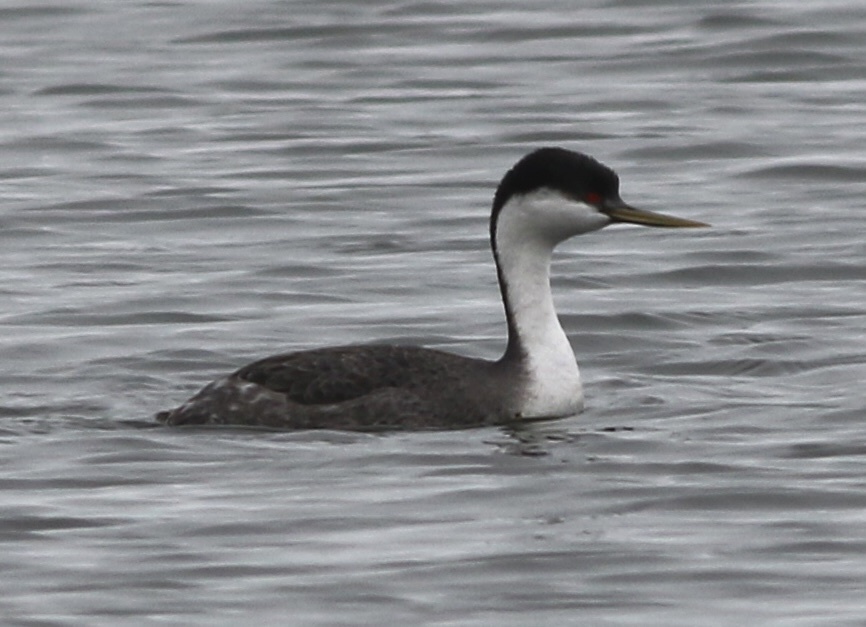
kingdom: Animalia
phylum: Chordata
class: Aves
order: Podicipediformes
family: Podicipedidae
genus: Aechmophorus
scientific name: Aechmophorus occidentalis
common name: Western grebe
